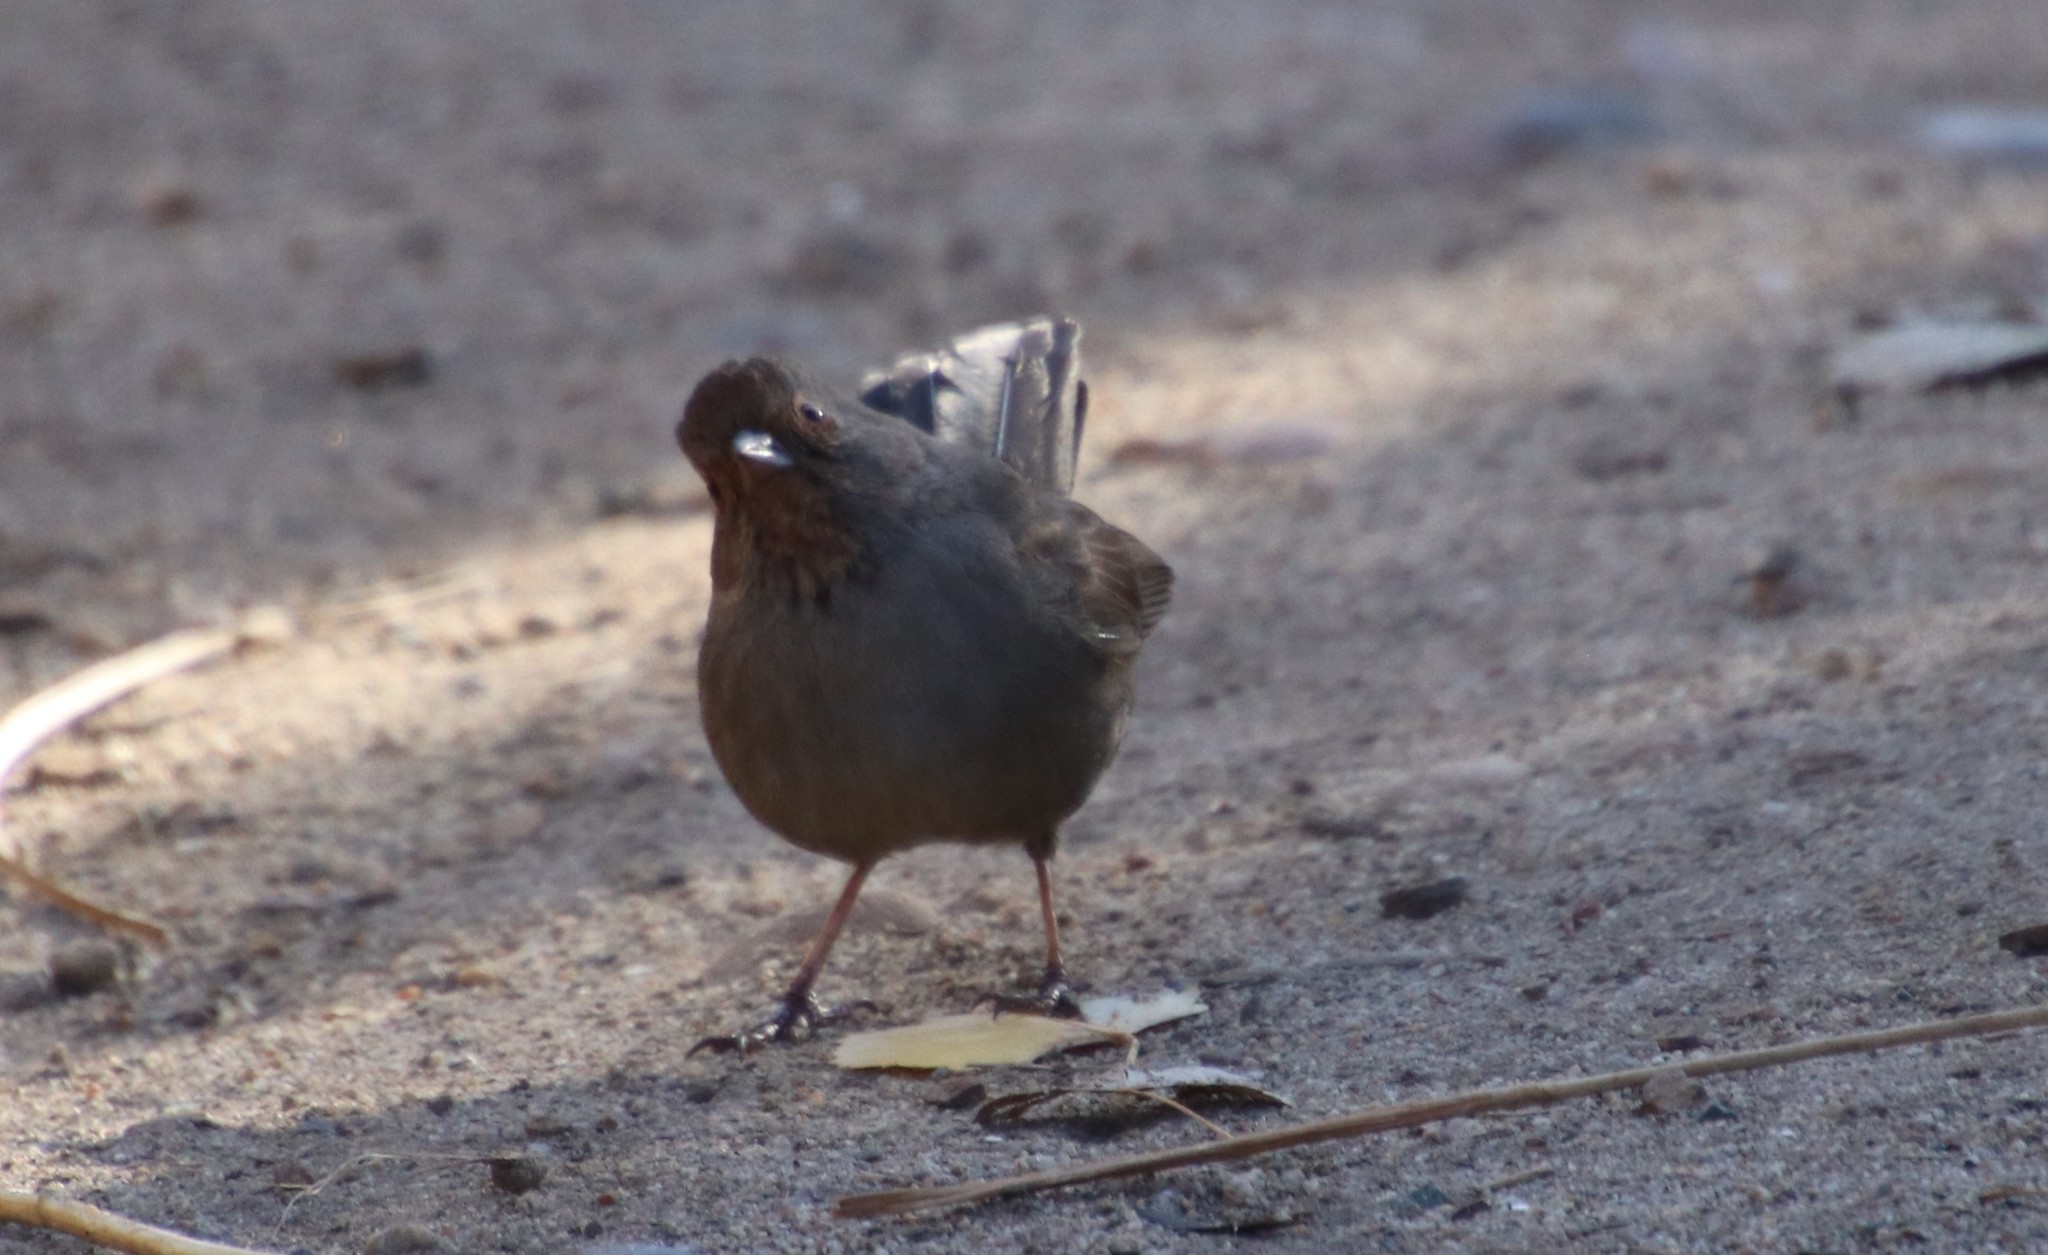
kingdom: Animalia
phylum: Chordata
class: Aves
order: Passeriformes
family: Passerellidae
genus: Melozone
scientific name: Melozone crissalis
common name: California towhee
